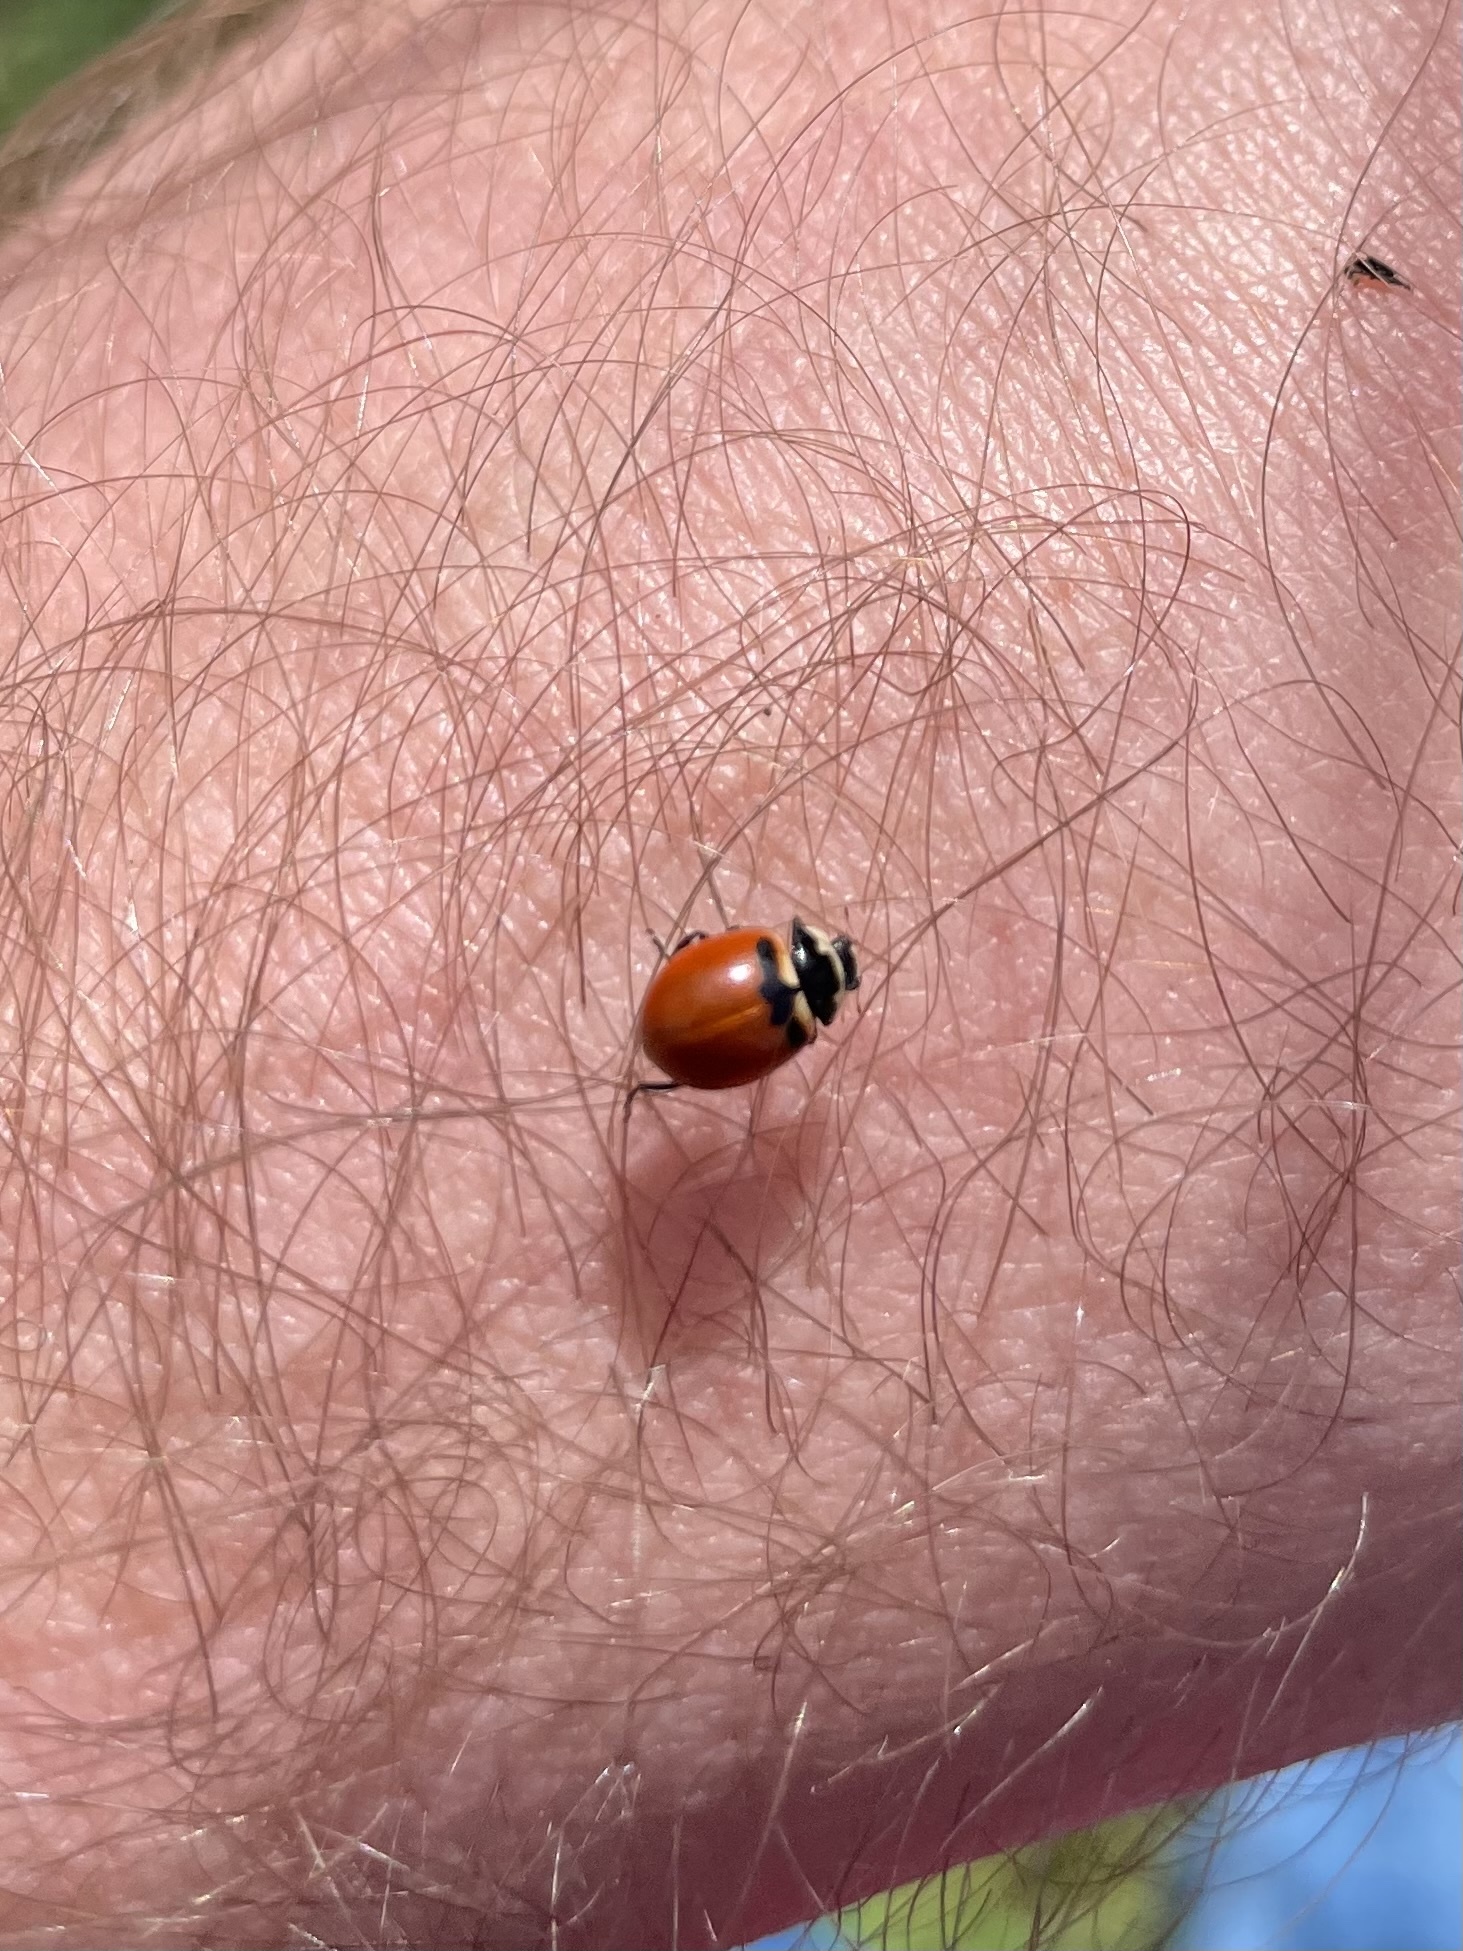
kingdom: Animalia
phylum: Arthropoda
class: Insecta
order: Coleoptera
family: Coccinellidae
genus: Coccinella
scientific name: Coccinella trifasciata
